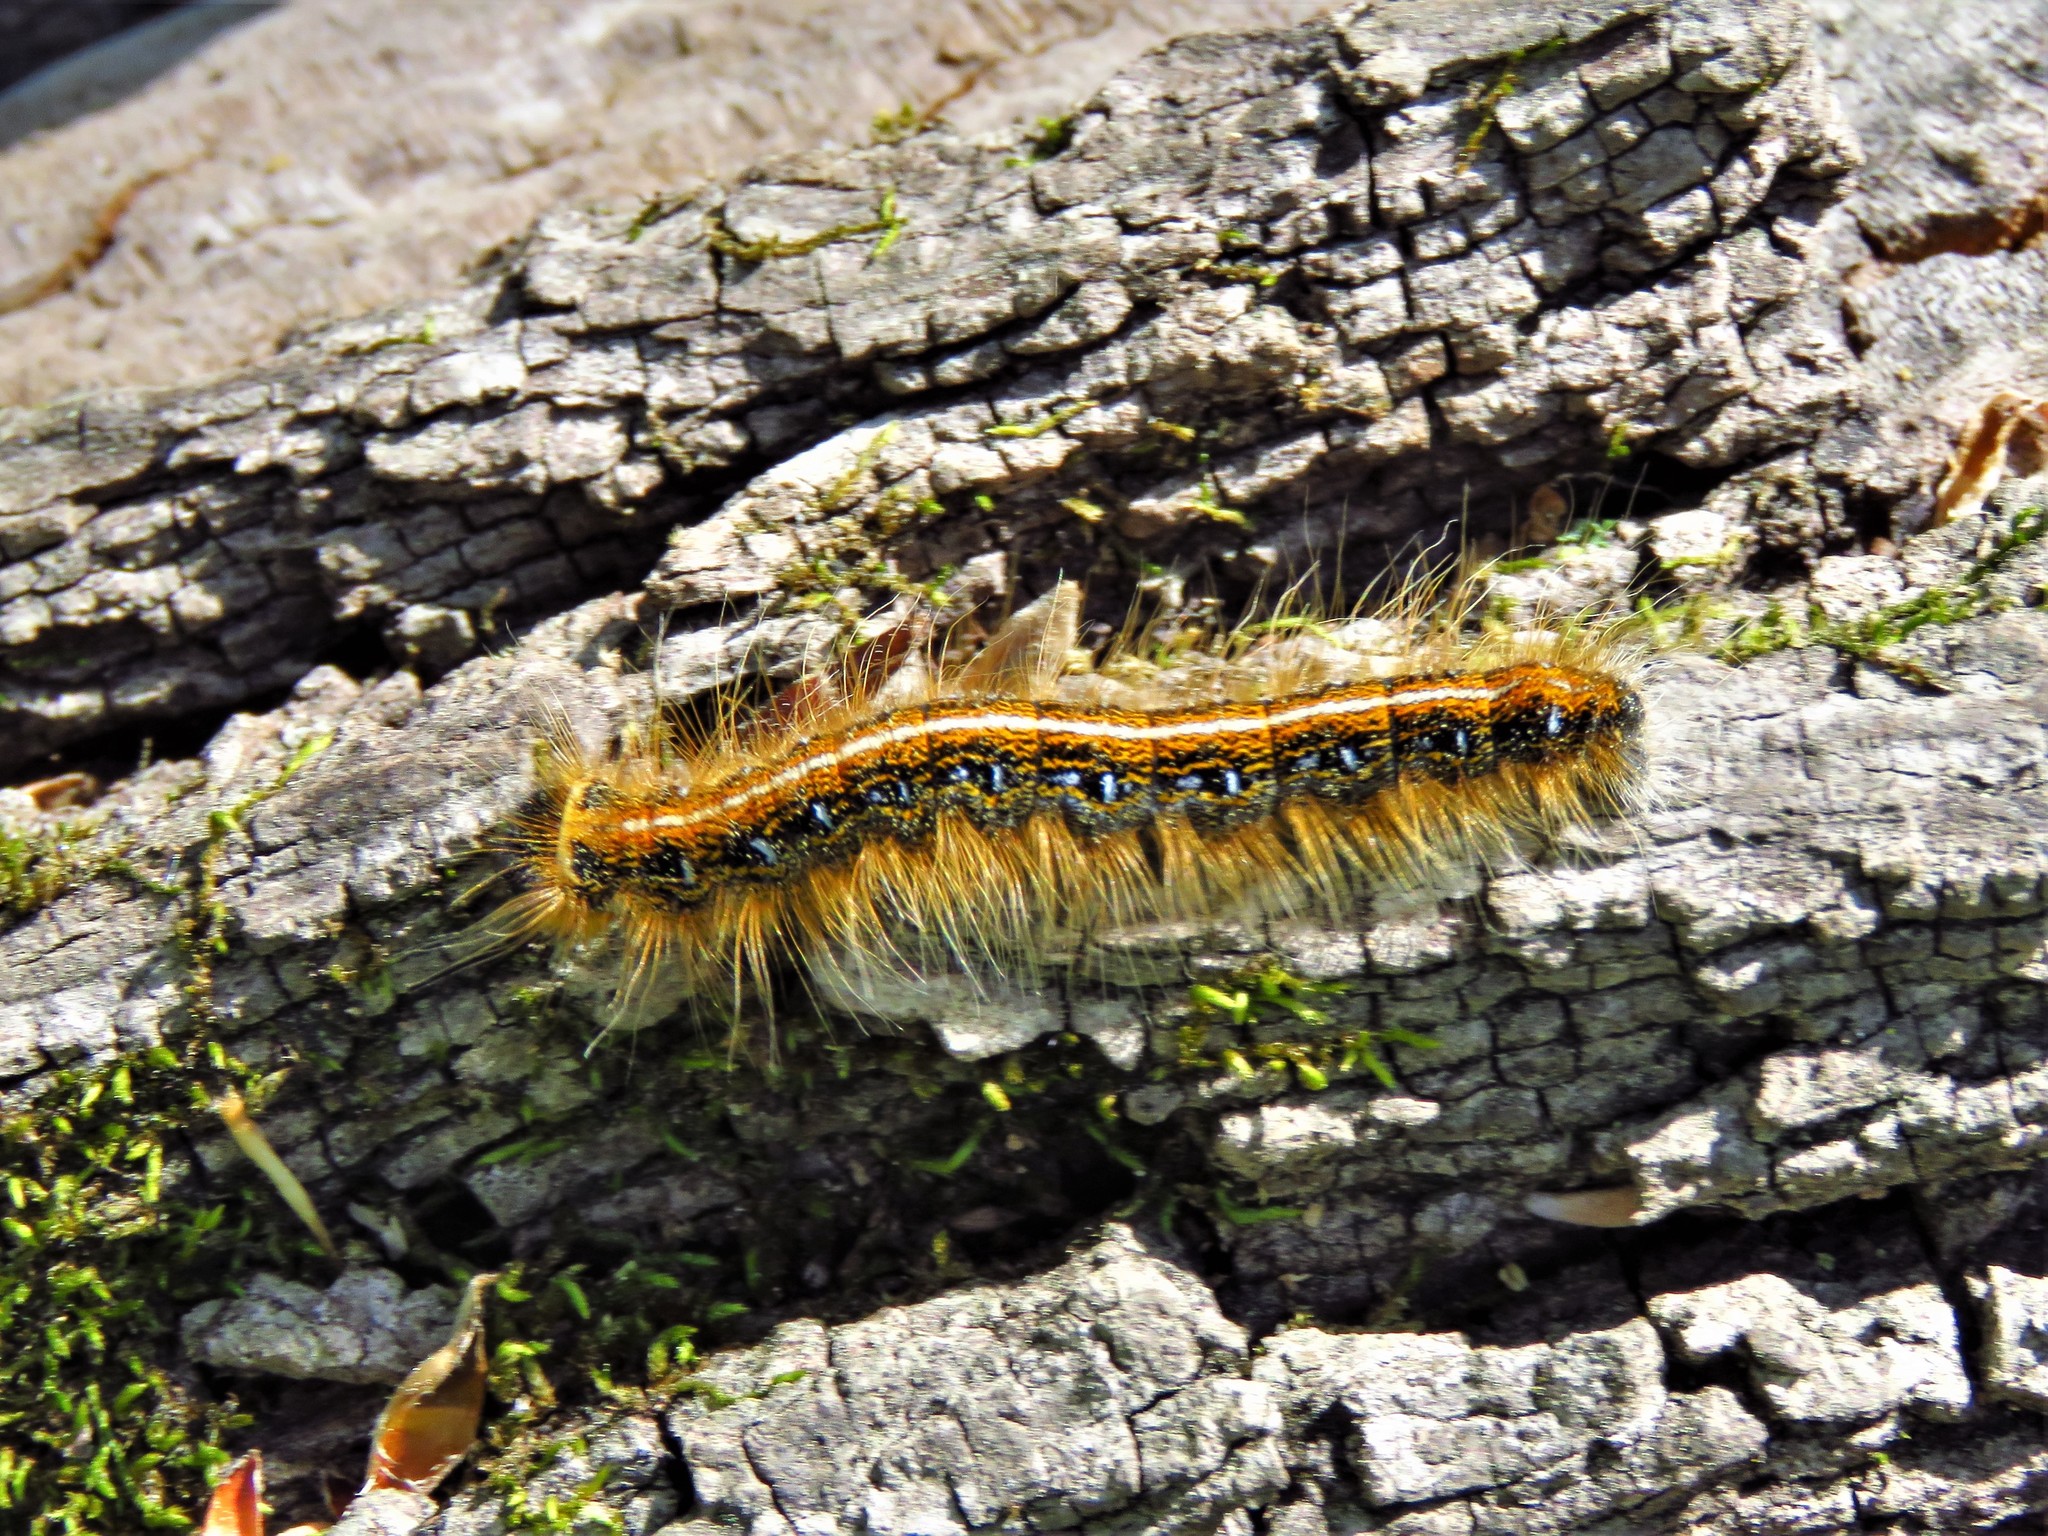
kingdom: Animalia
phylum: Arthropoda
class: Insecta
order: Lepidoptera
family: Lasiocampidae
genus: Malacosoma
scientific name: Malacosoma americana
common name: Eastern tent caterpillar moth
